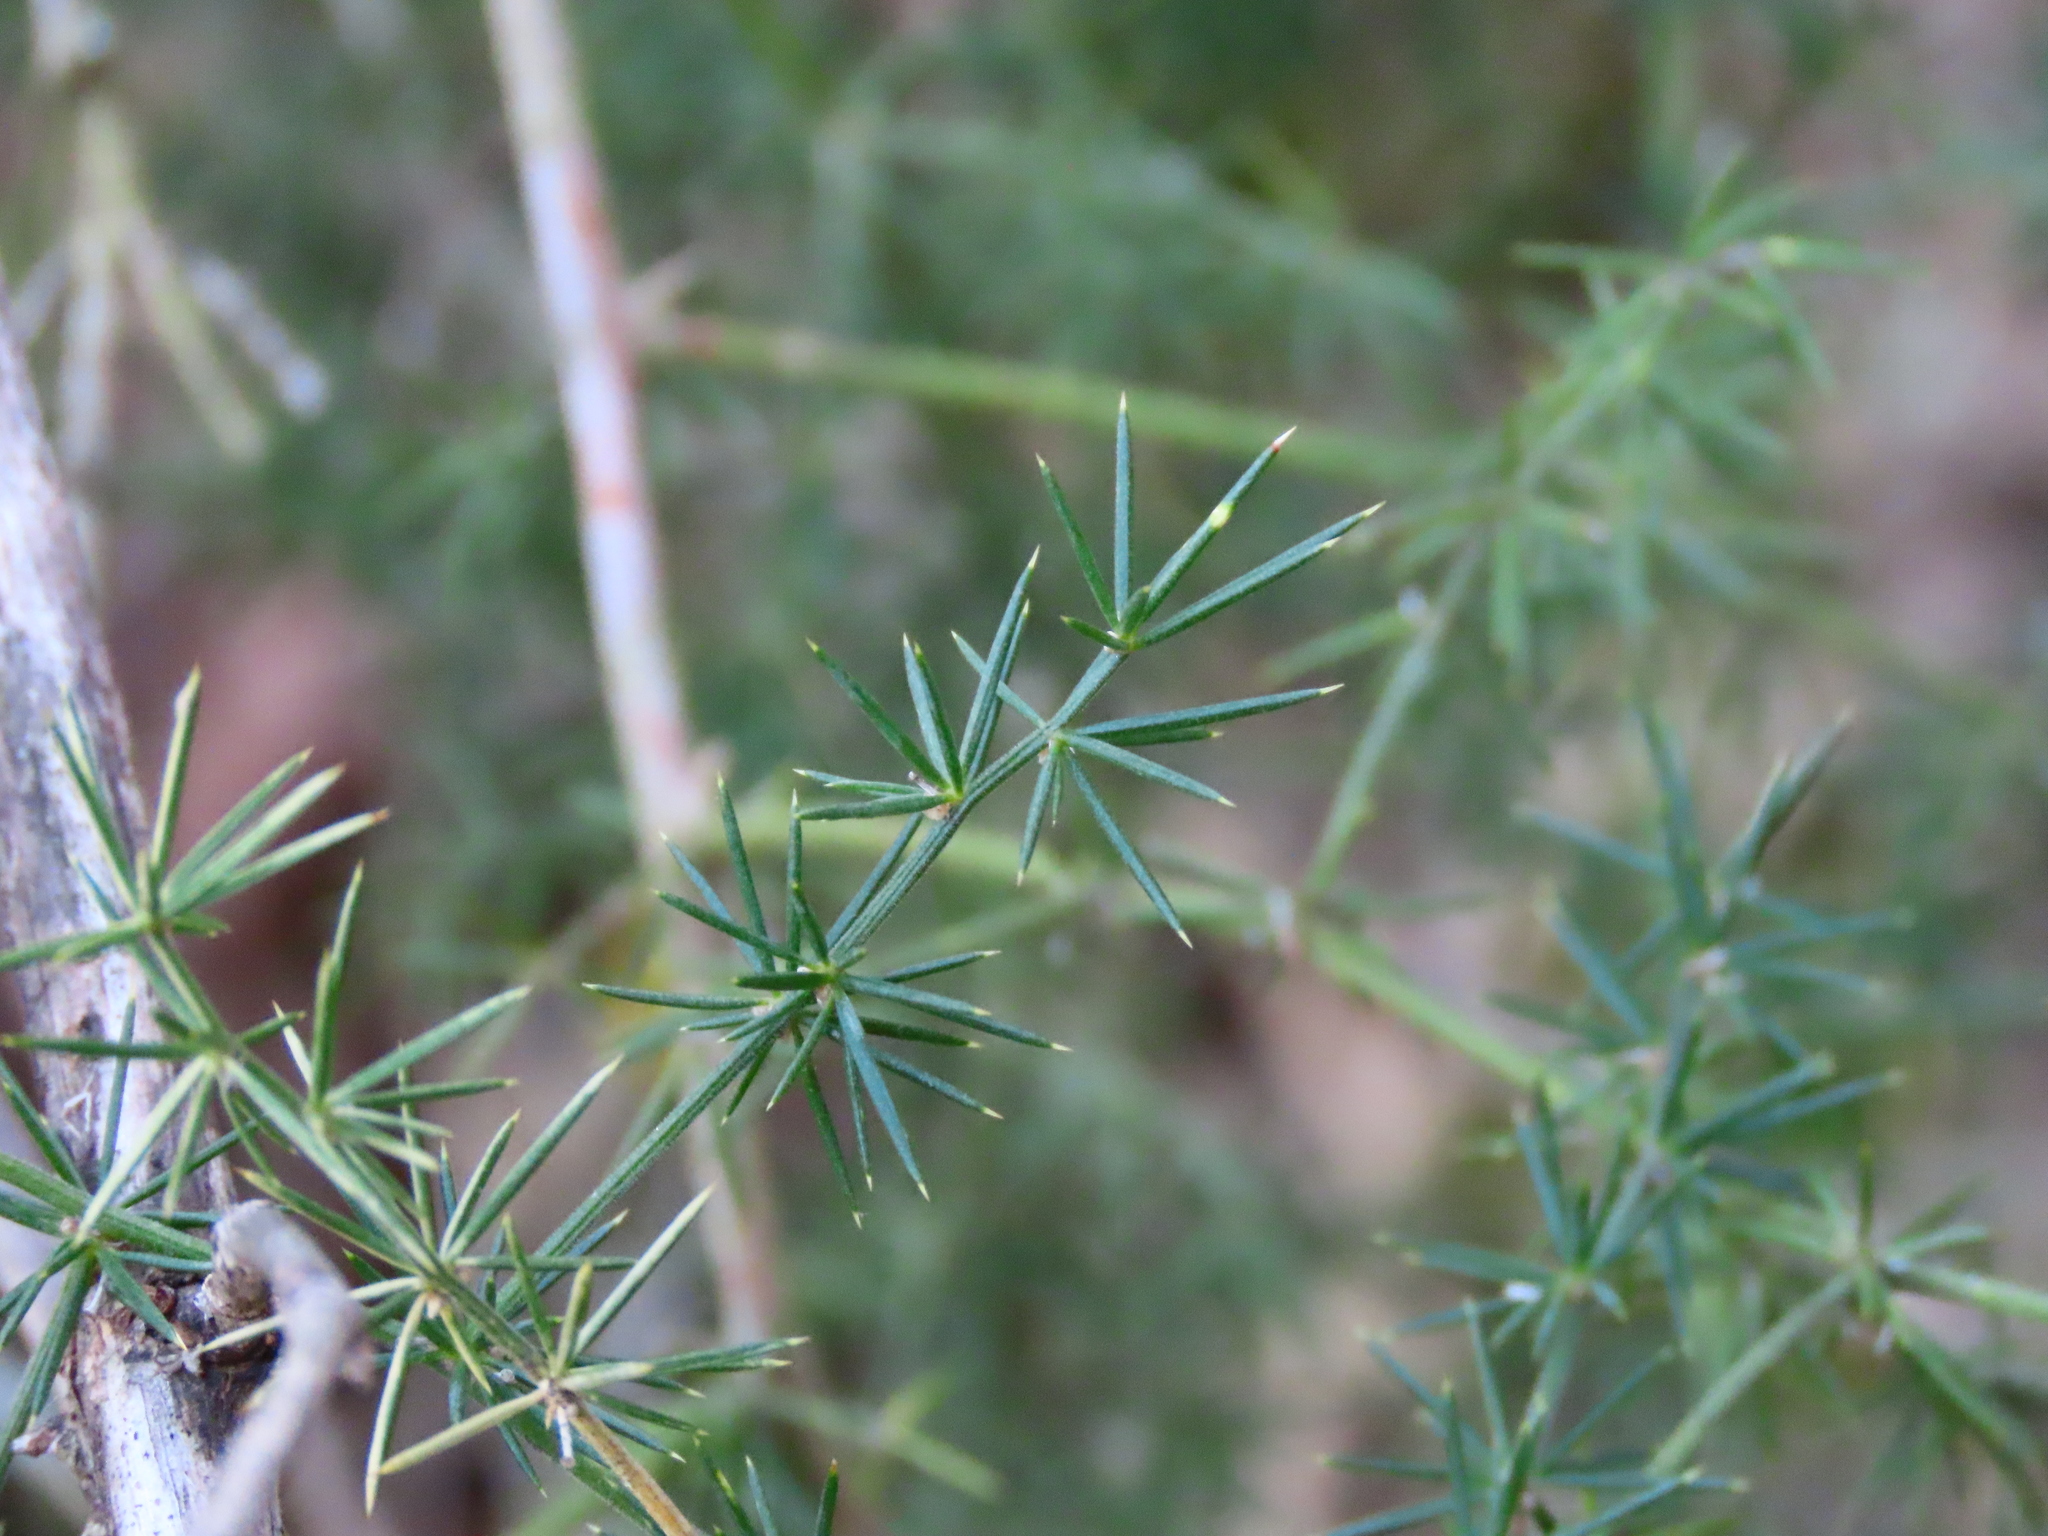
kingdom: Plantae
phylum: Tracheophyta
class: Liliopsida
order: Asparagales
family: Asparagaceae
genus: Asparagus
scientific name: Asparagus acutifolius
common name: Wild asparagus
